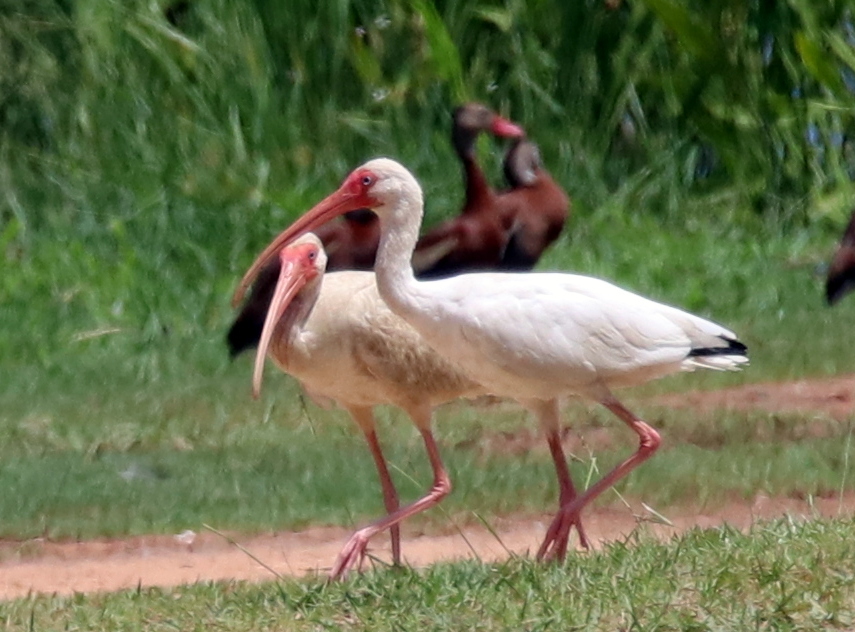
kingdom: Animalia
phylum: Chordata
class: Aves
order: Pelecaniformes
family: Threskiornithidae
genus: Eudocimus
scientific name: Eudocimus albus
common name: White ibis
